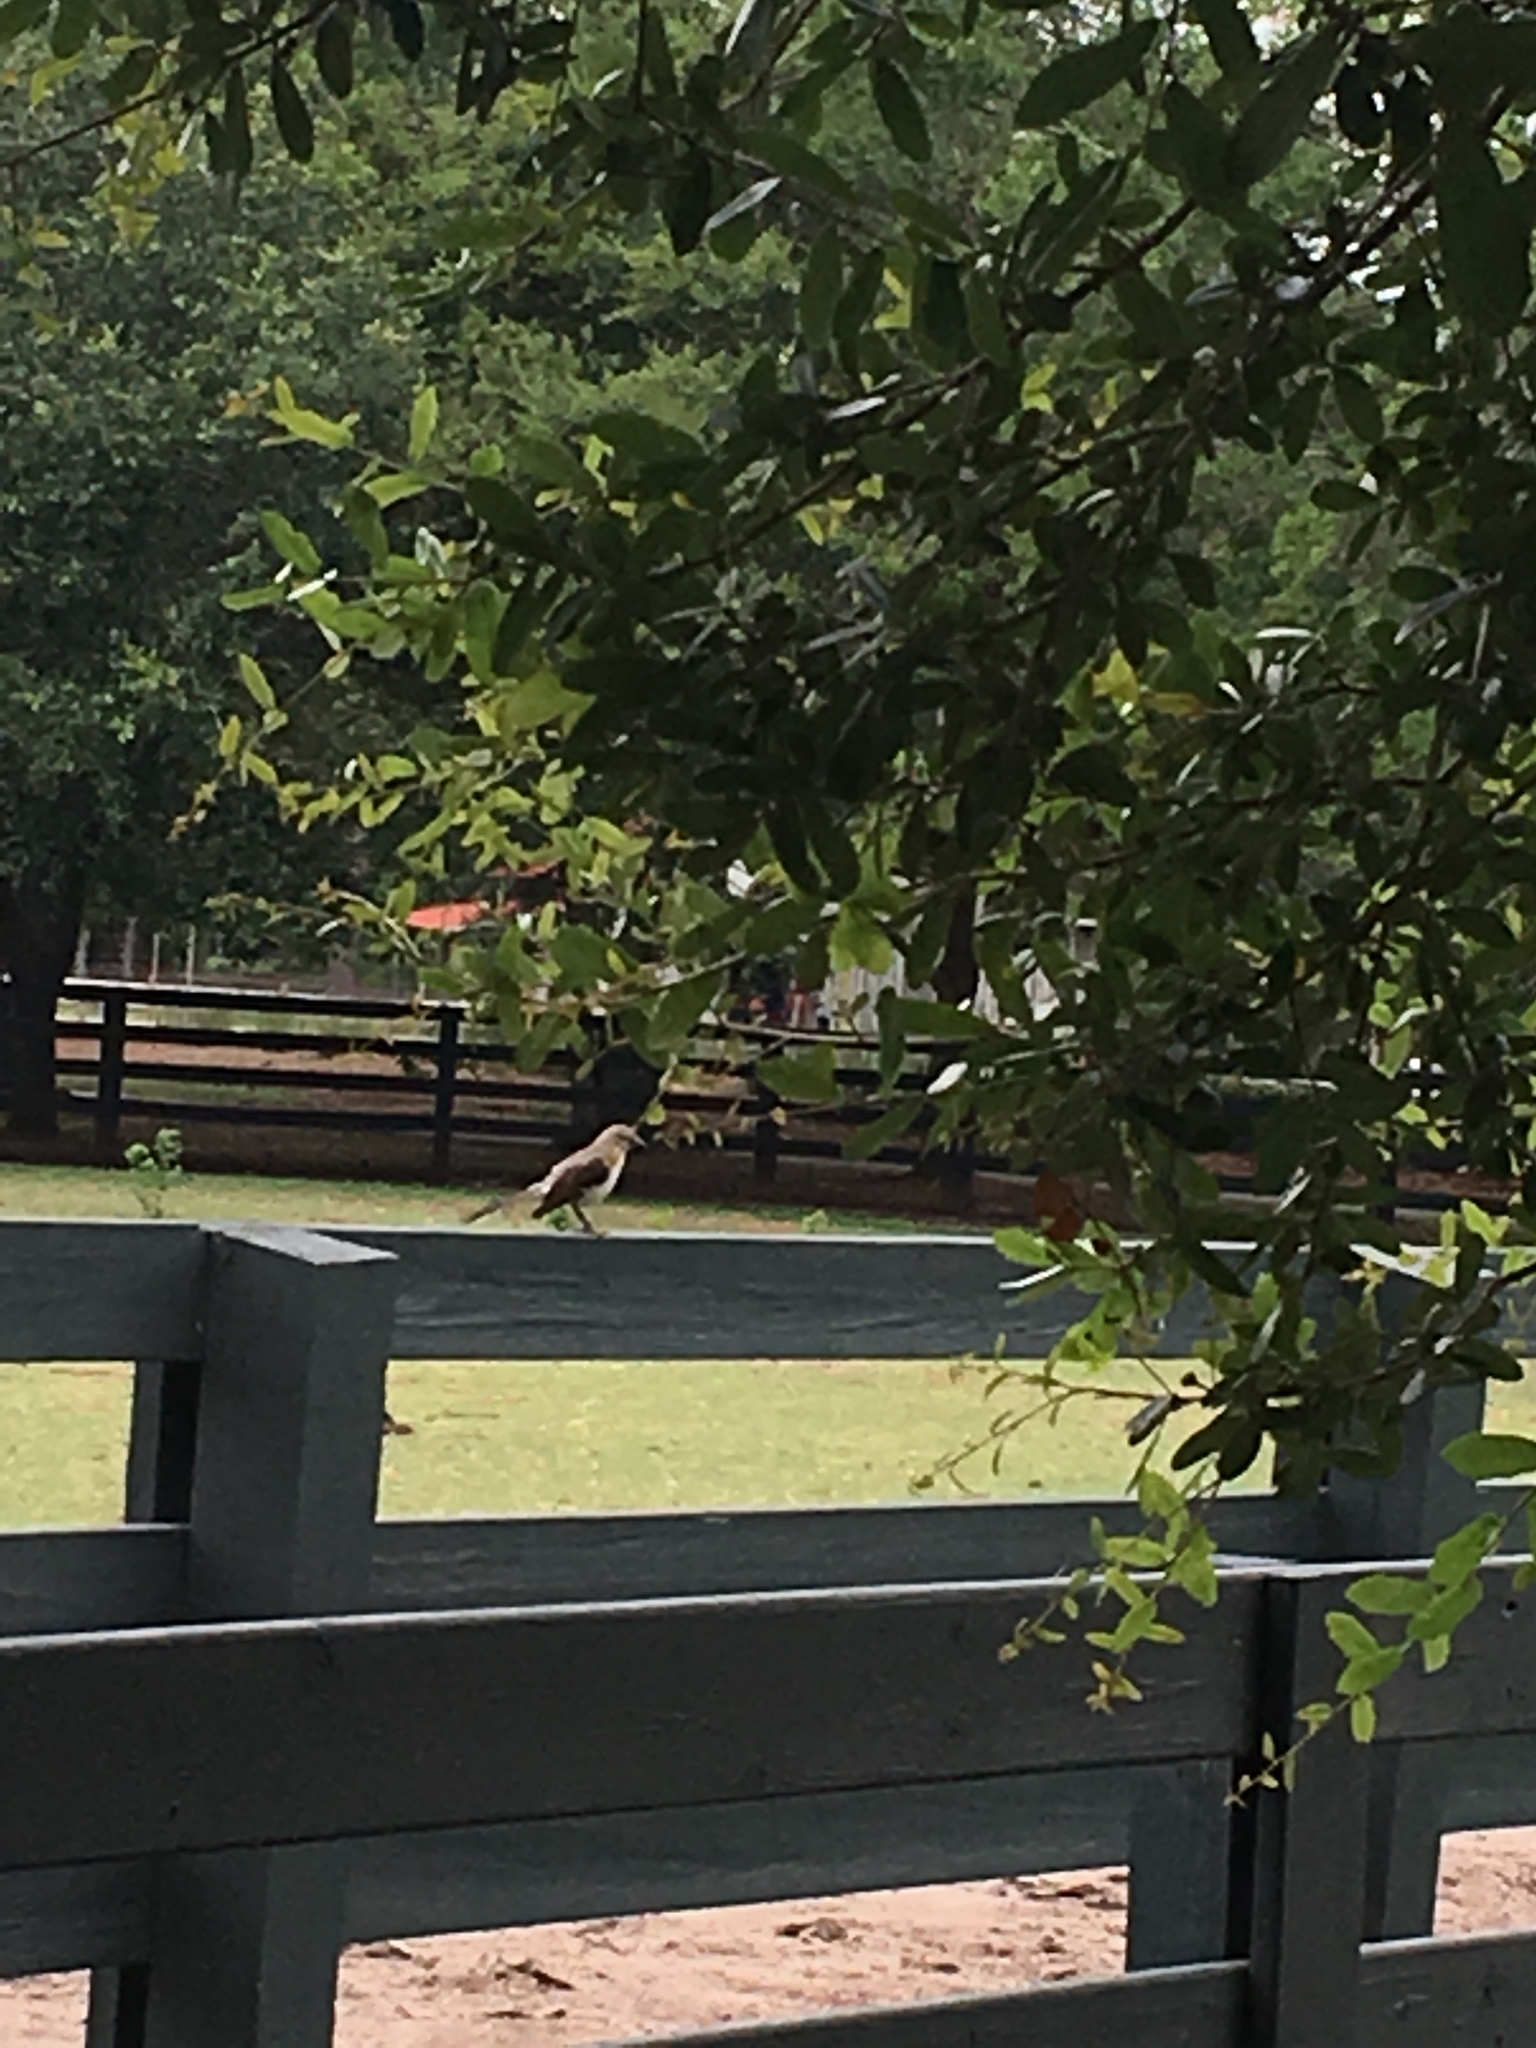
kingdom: Animalia
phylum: Chordata
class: Aves
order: Passeriformes
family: Mimidae
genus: Mimus
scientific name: Mimus polyglottos
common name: Northern mockingbird
